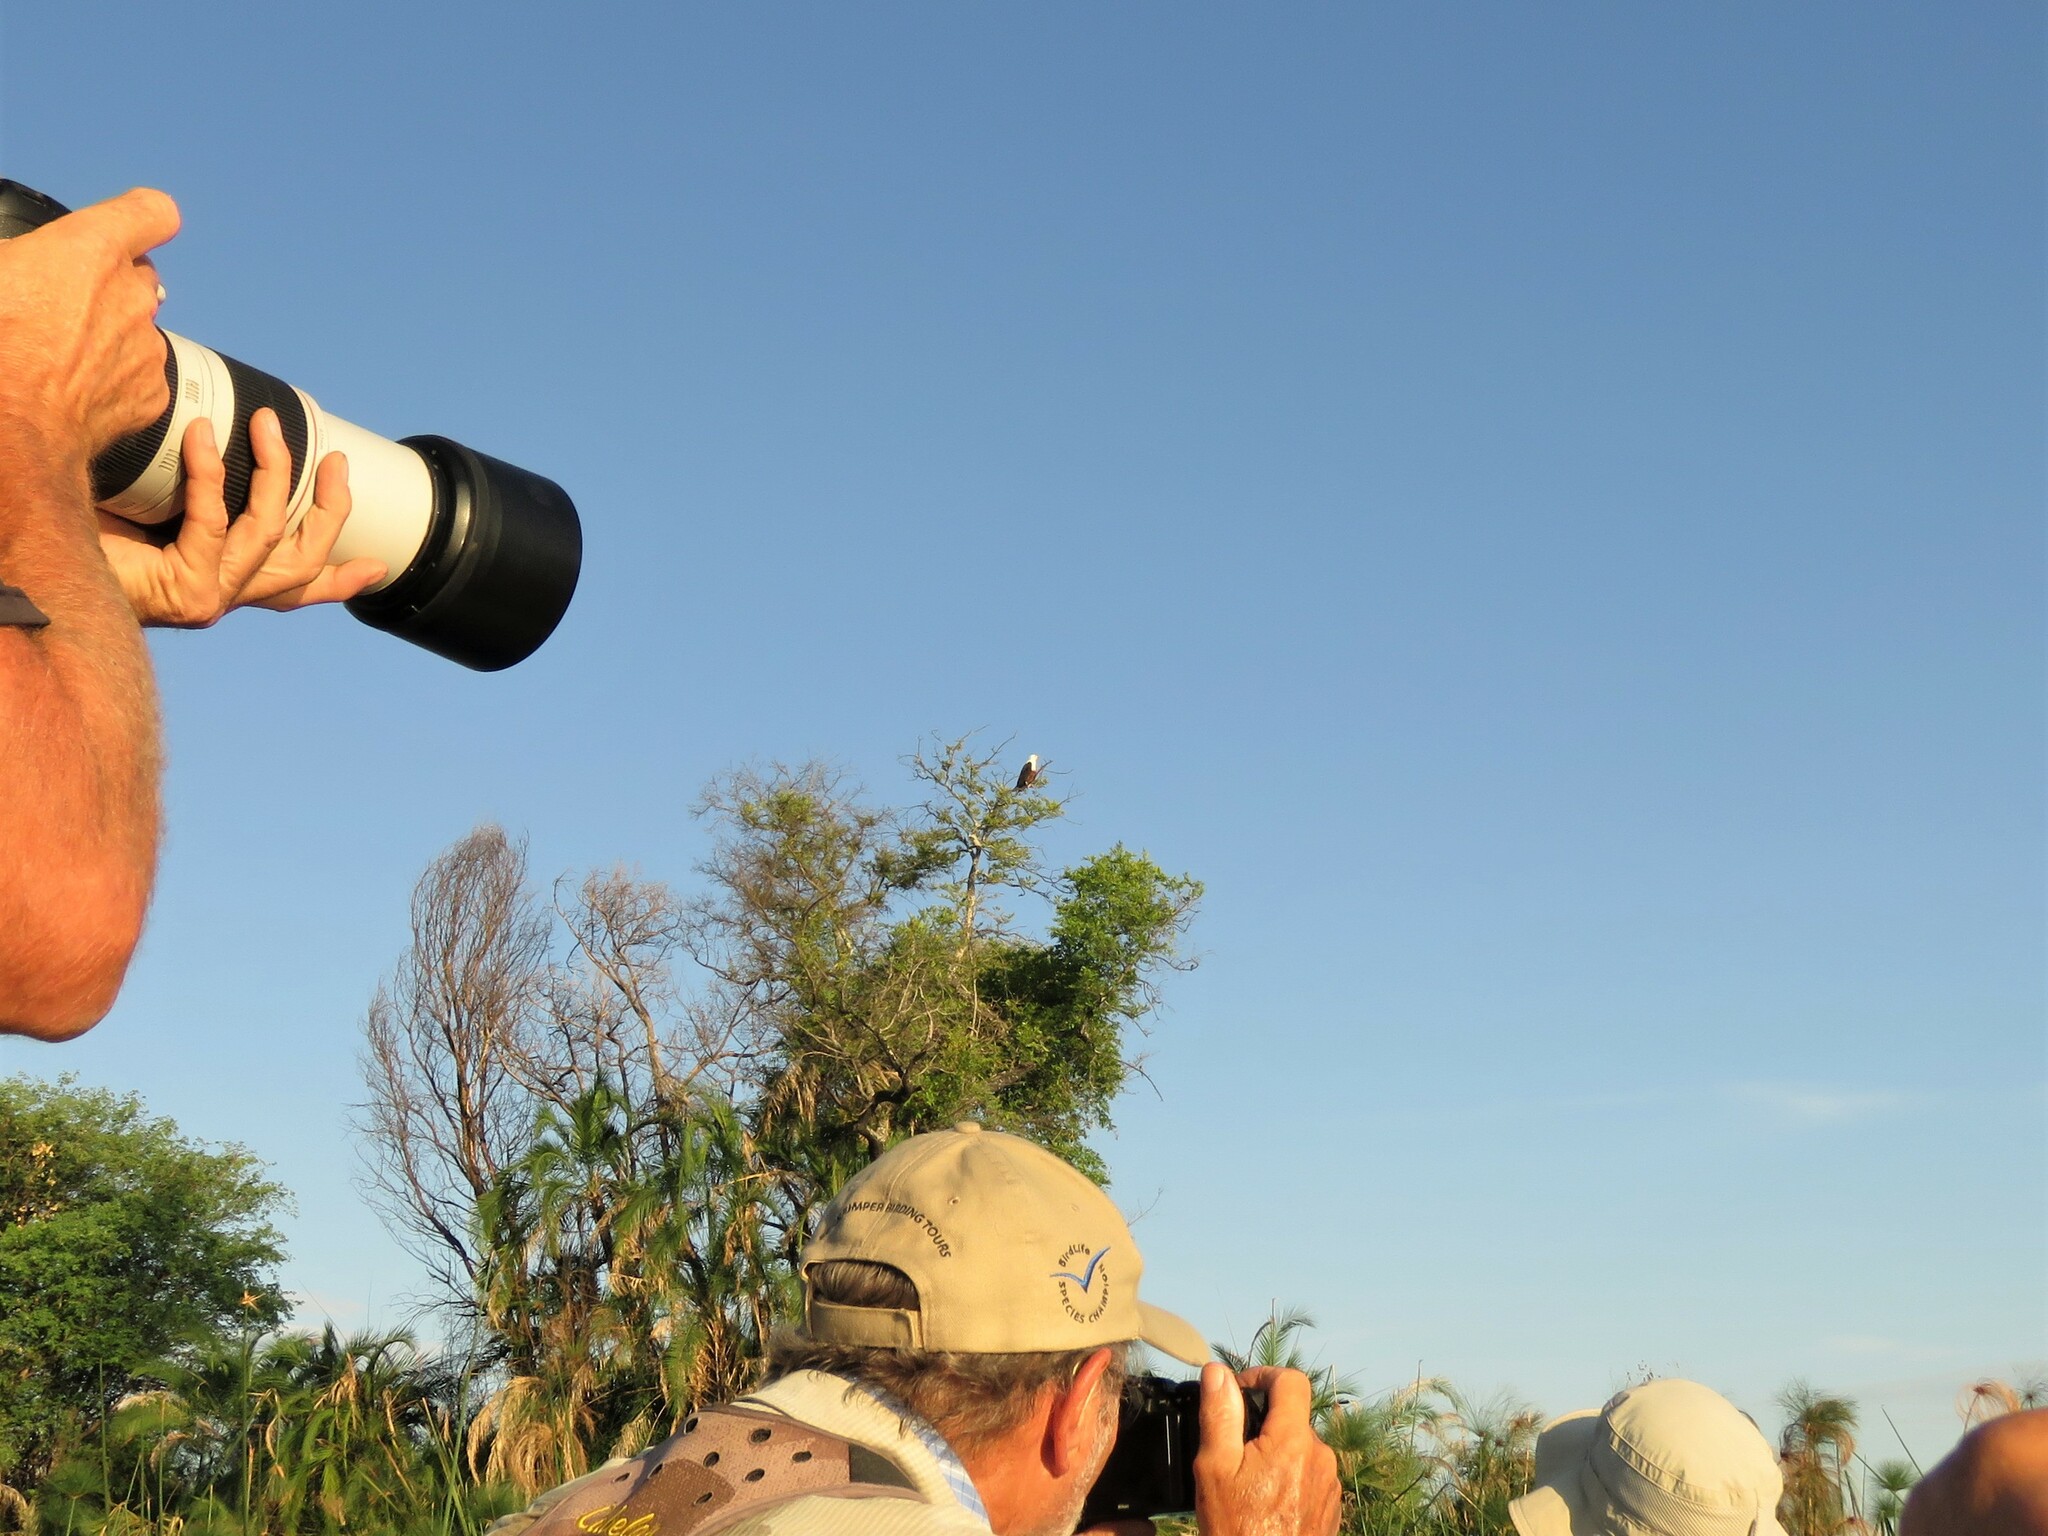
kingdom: Animalia
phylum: Chordata
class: Aves
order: Accipitriformes
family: Accipitridae
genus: Haliaeetus
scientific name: Haliaeetus vocifer
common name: African fish eagle
